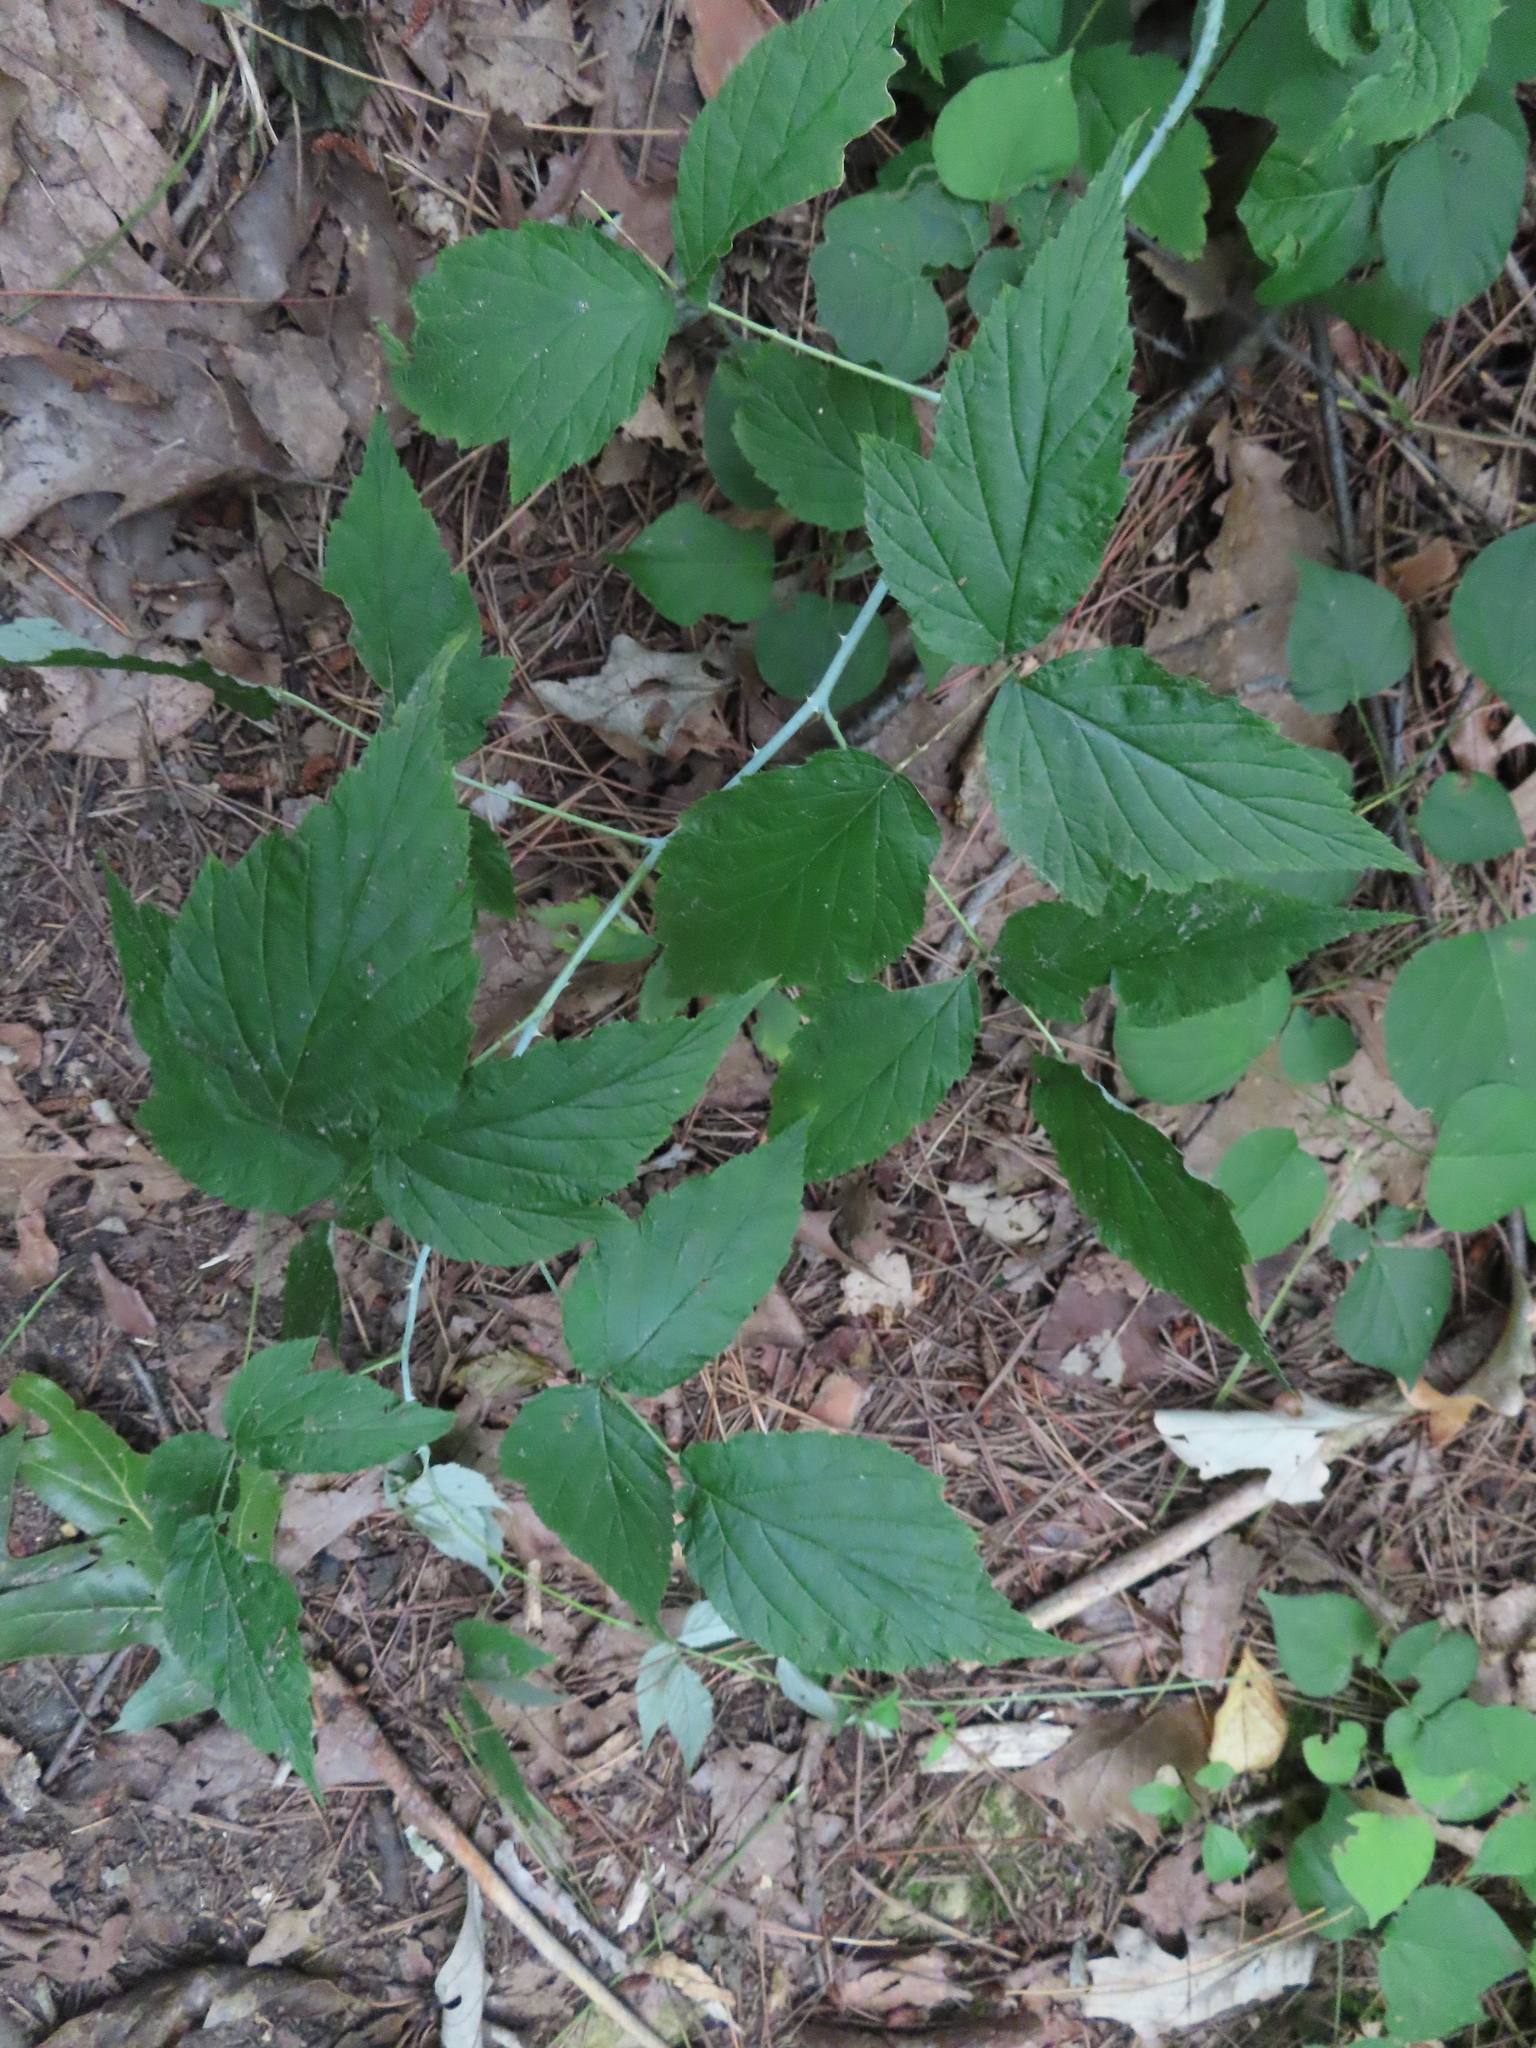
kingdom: Plantae
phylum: Tracheophyta
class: Magnoliopsida
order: Rosales
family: Rosaceae
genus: Rubus
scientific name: Rubus occidentalis
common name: Black raspberry
